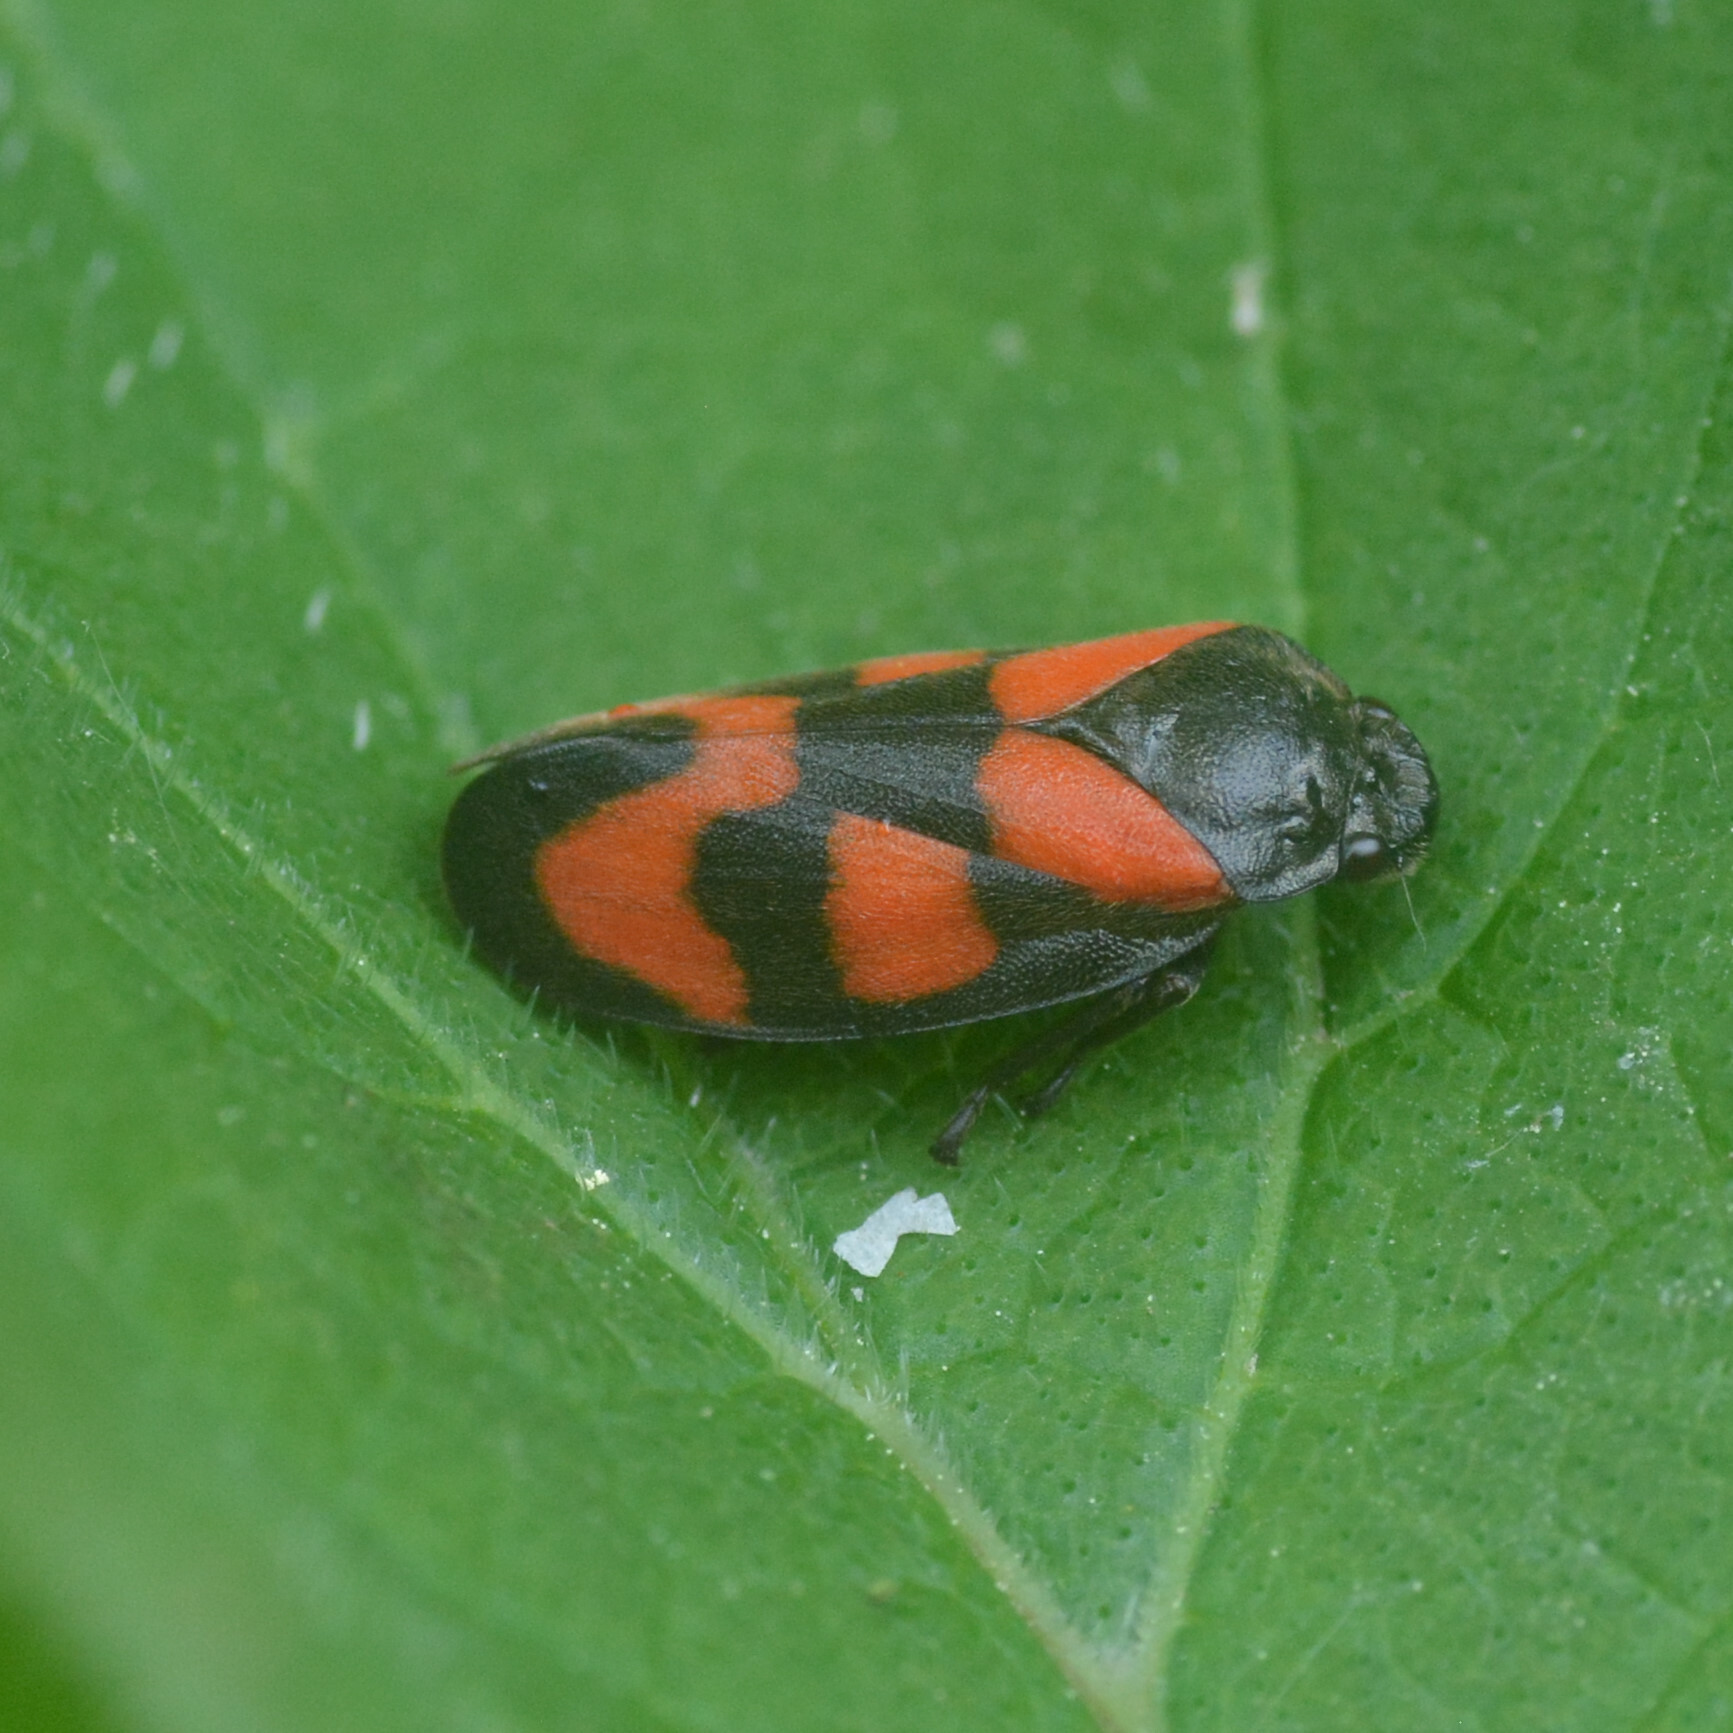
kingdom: Animalia
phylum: Arthropoda
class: Insecta
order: Hemiptera
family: Cercopidae
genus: Cercopis
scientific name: Cercopis vulnerata
